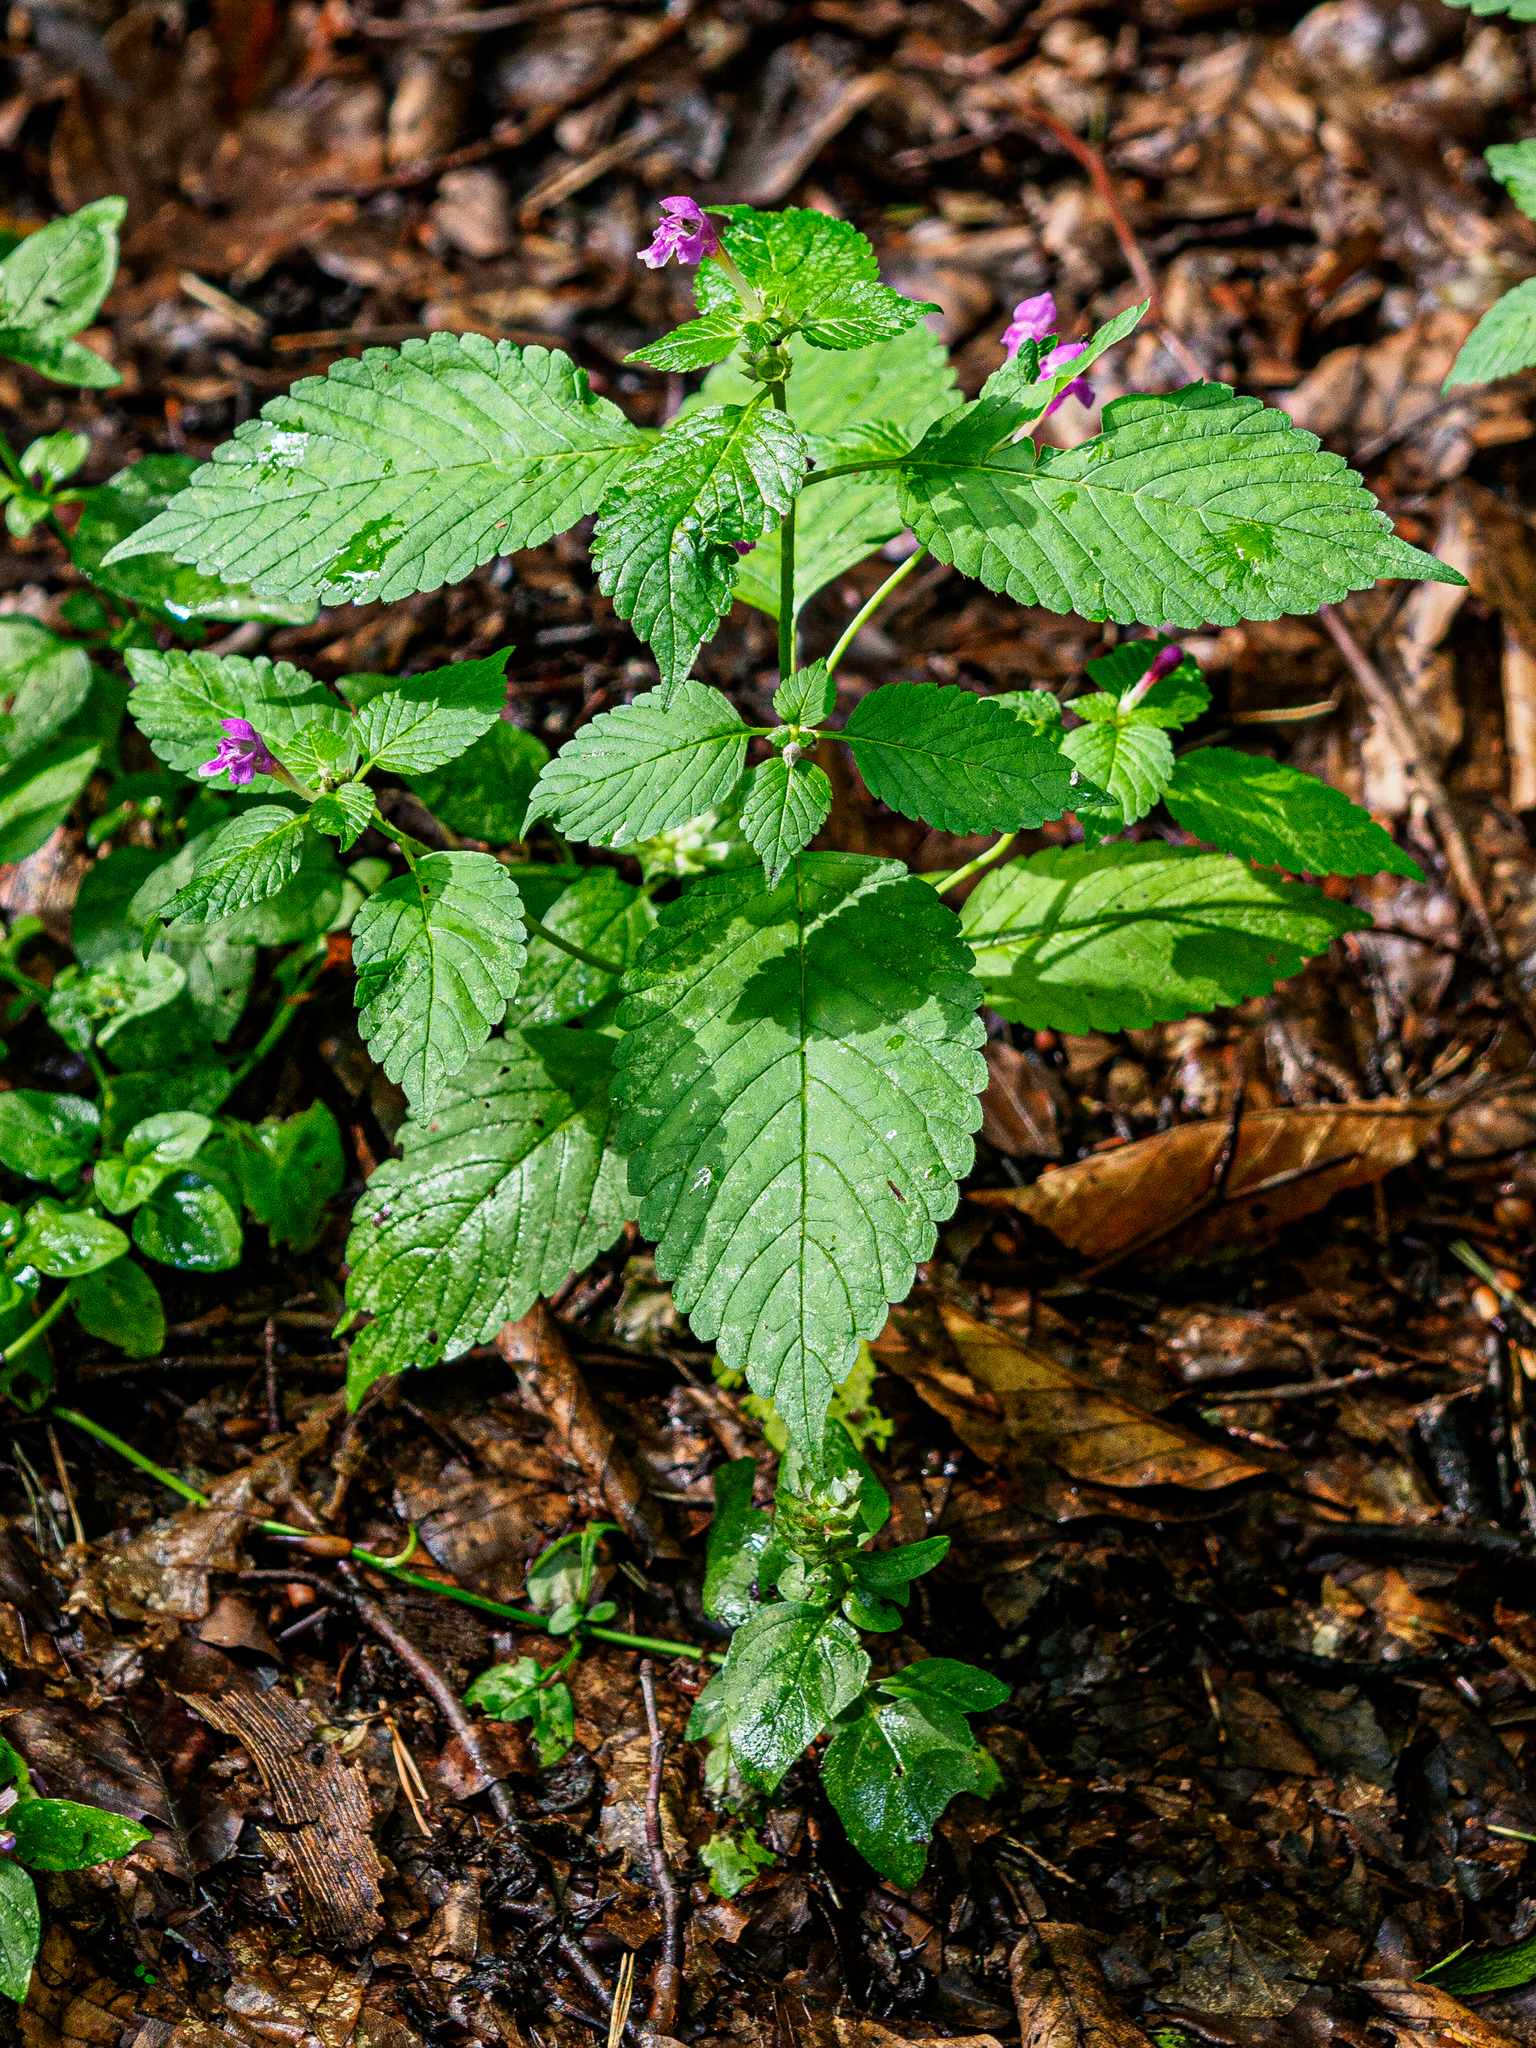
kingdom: Plantae
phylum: Tracheophyta
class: Magnoliopsida
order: Lamiales
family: Lamiaceae
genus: Galeopsis
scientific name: Galeopsis pubescens
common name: Downy hemp-nettle
